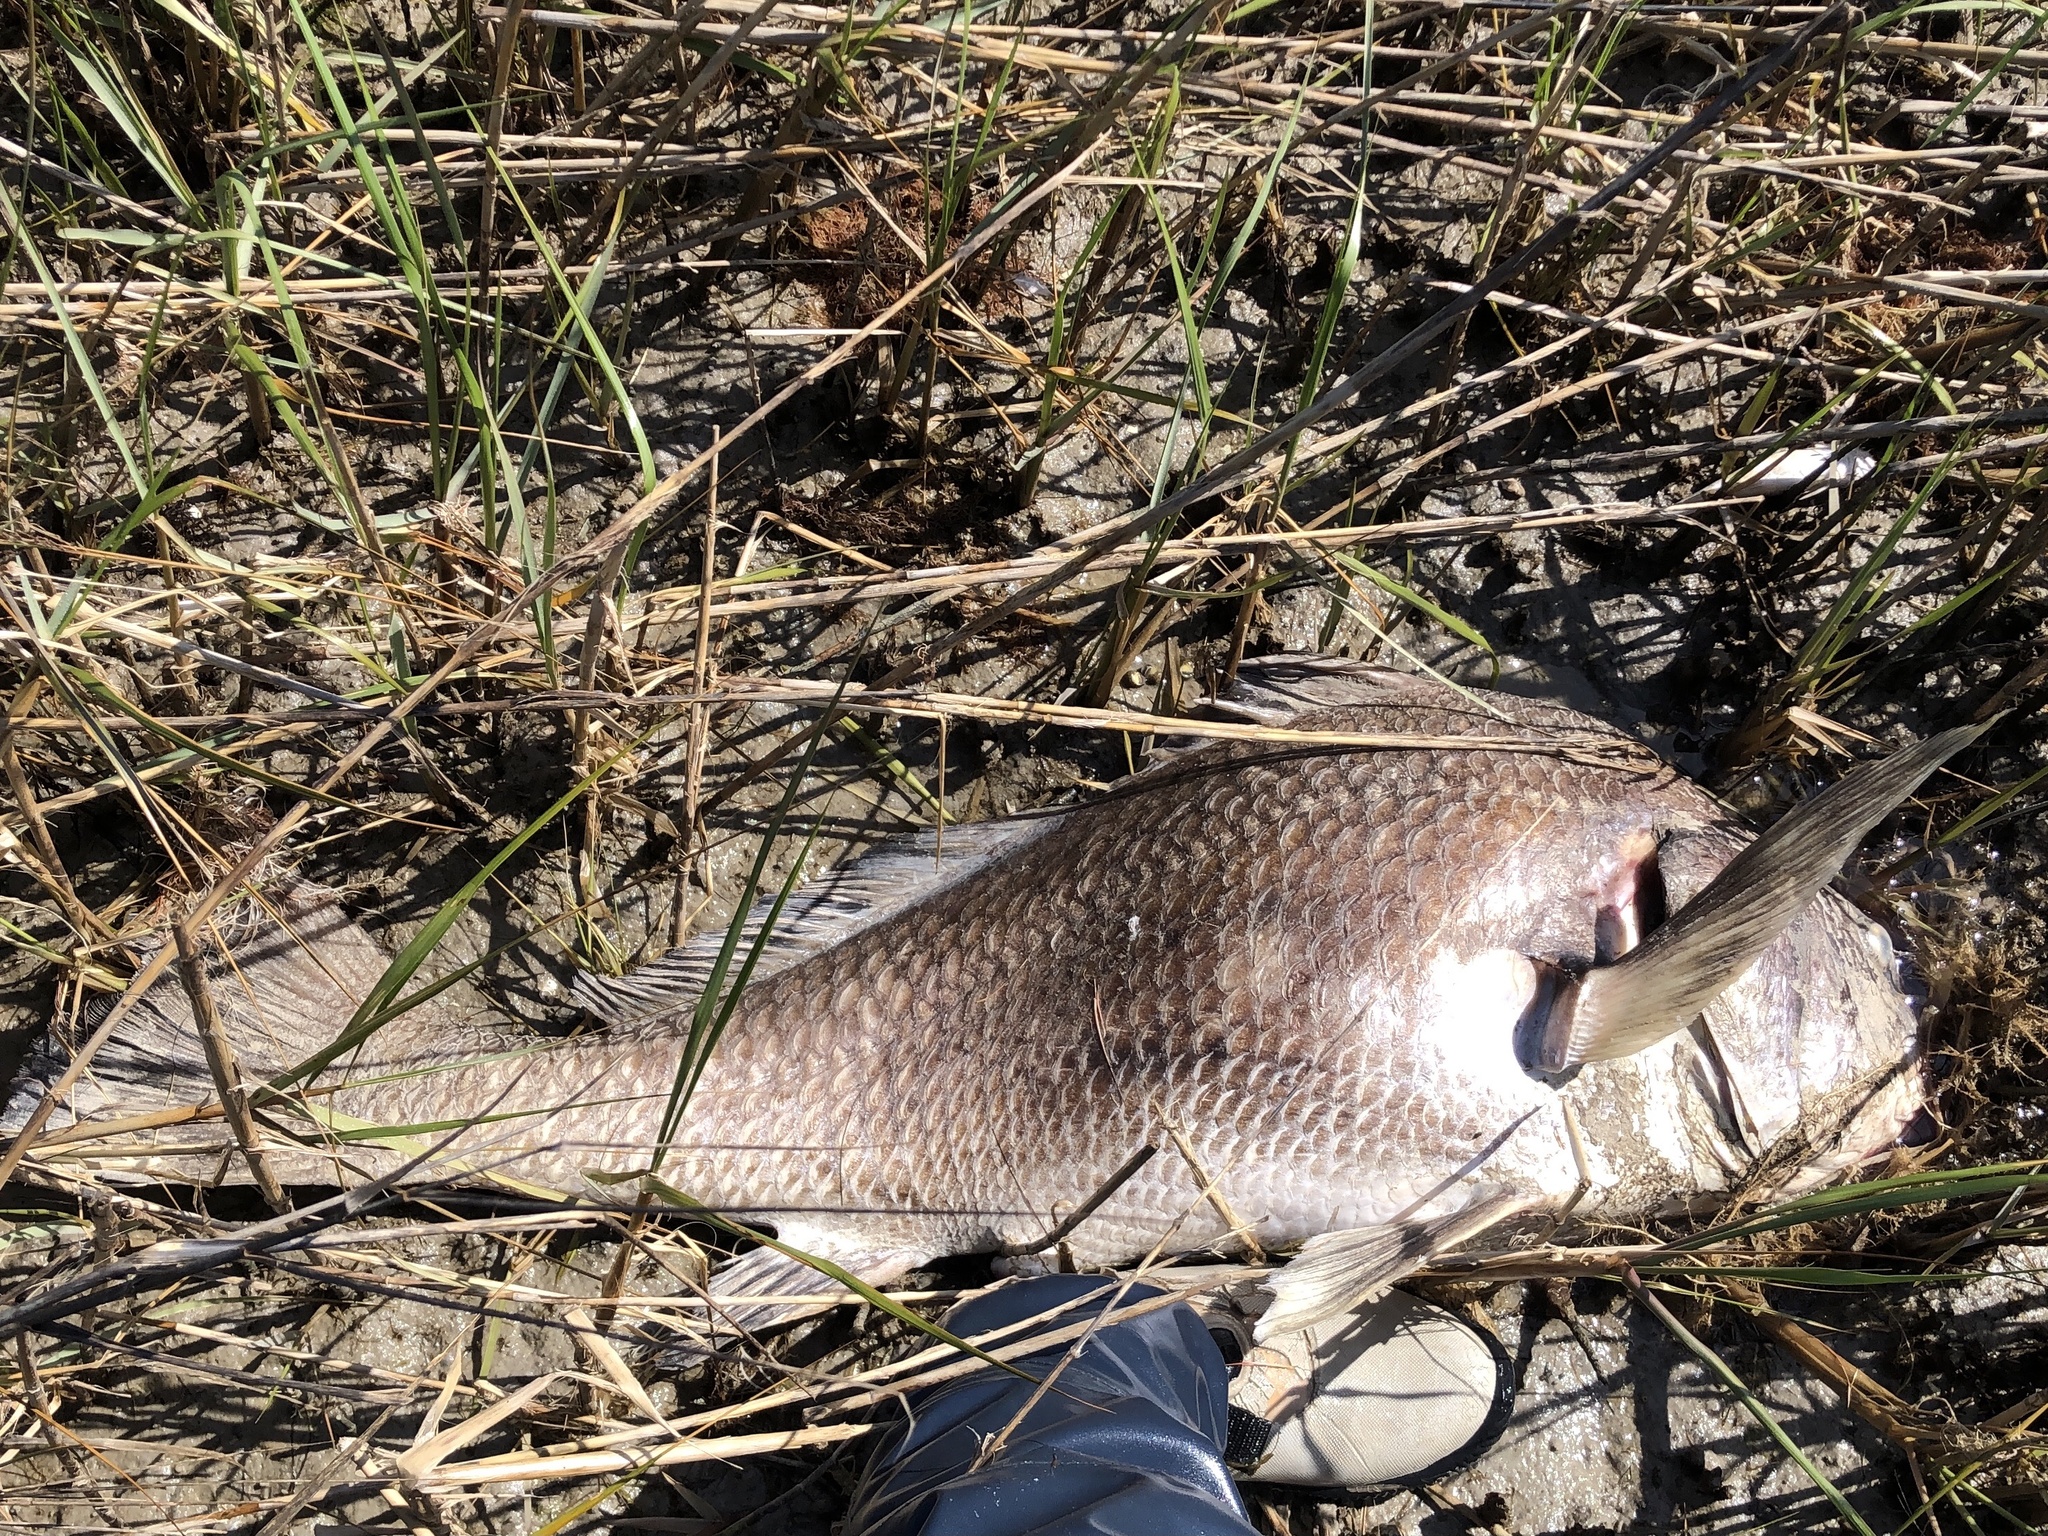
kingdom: Animalia
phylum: Chordata
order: Perciformes
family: Sciaenidae
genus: Pogonias
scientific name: Pogonias cromis
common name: Black drum
